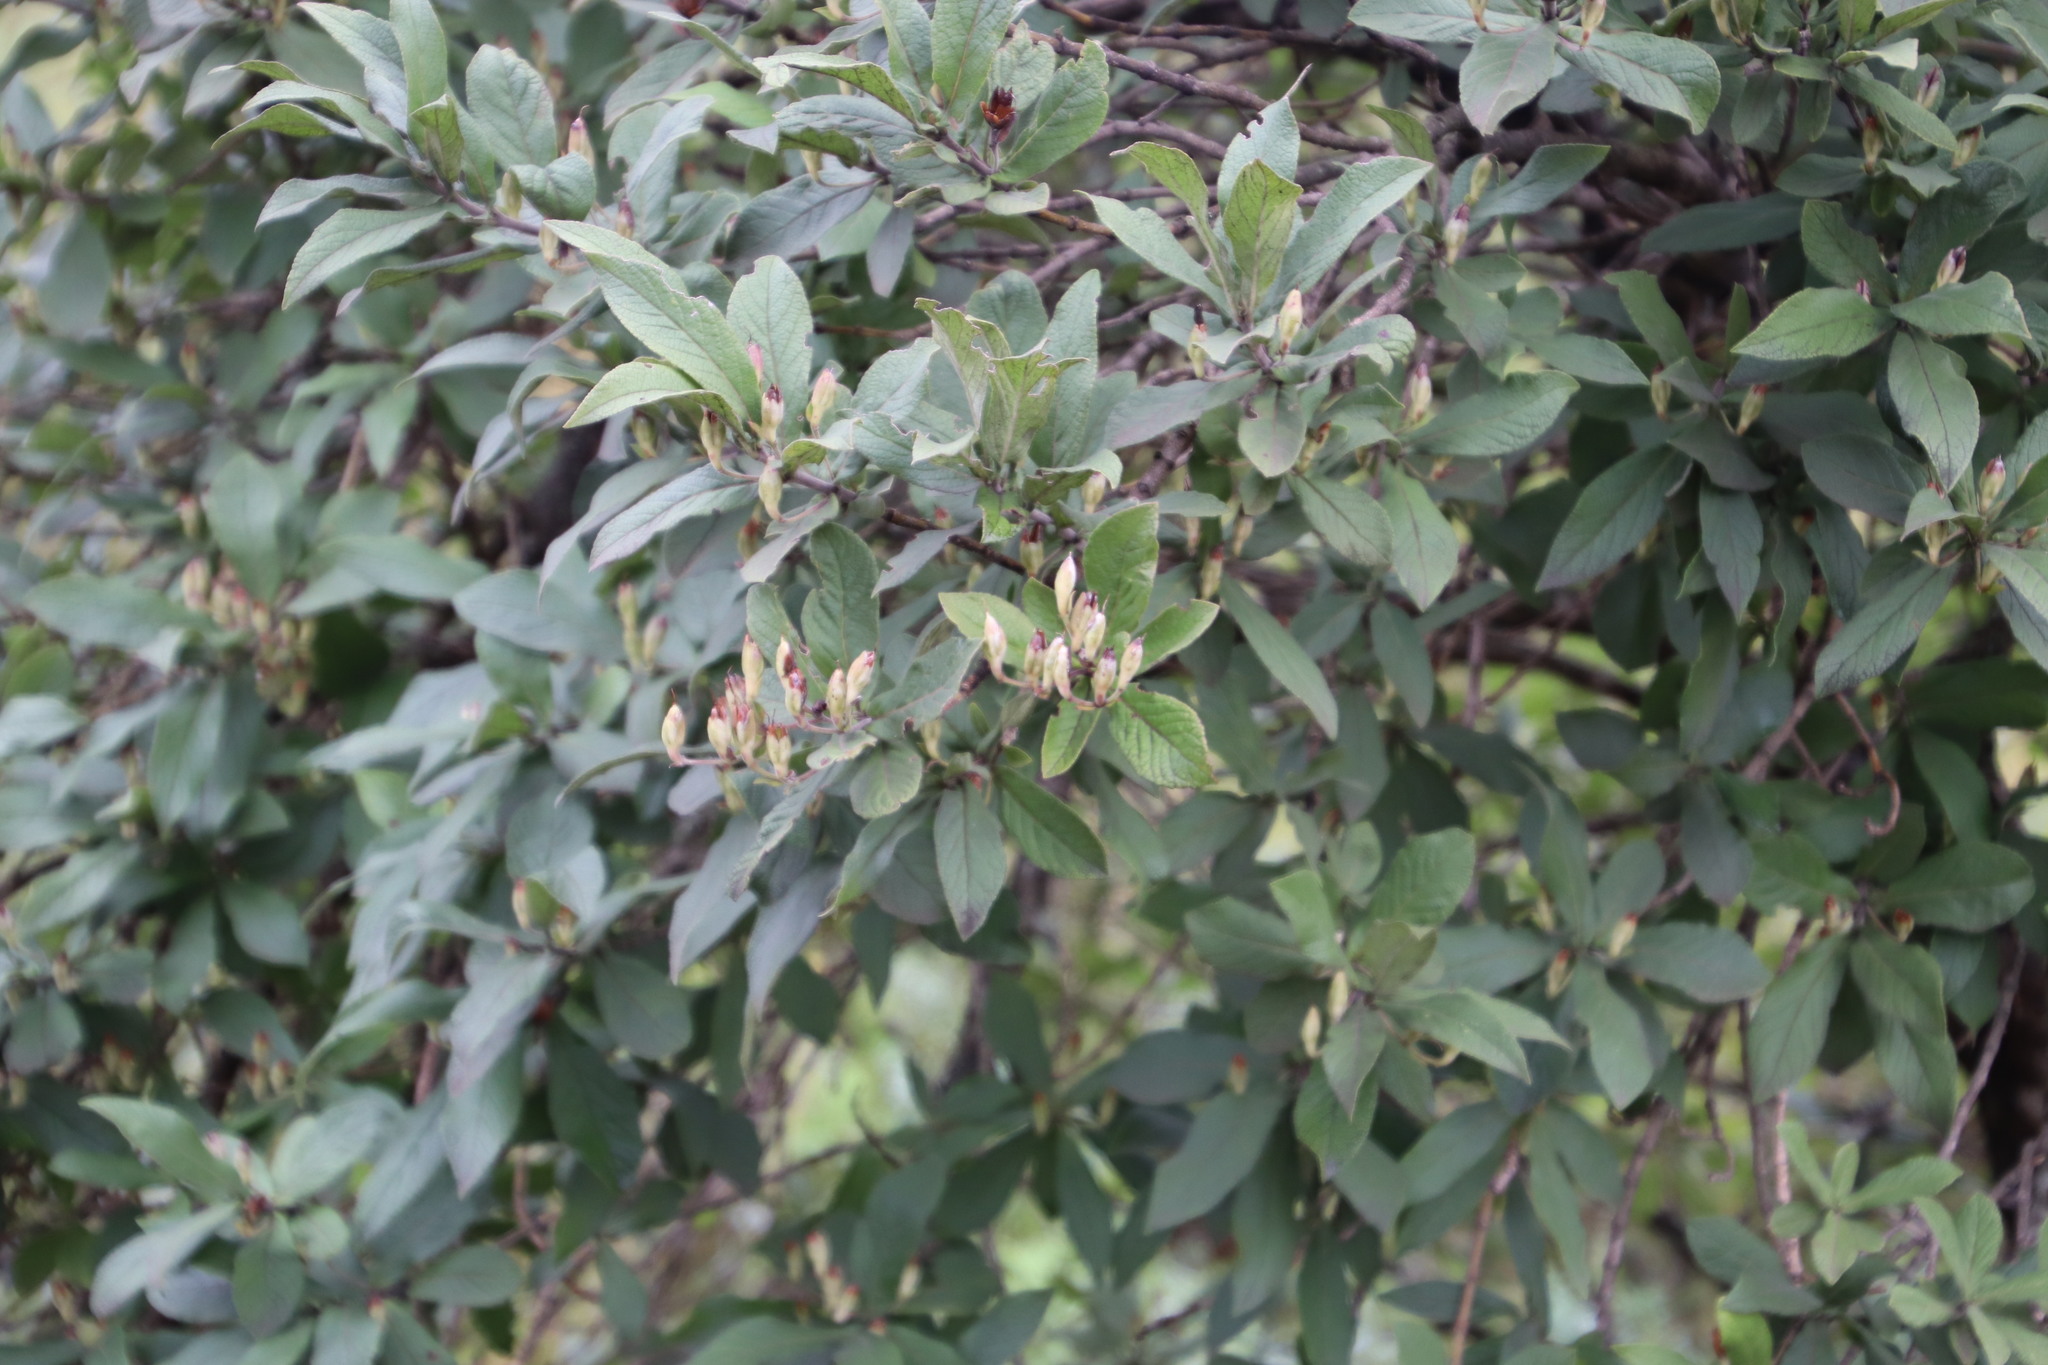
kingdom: Plantae
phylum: Tracheophyta
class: Magnoliopsida
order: Lamiales
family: Stilbaceae
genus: Bowkeria
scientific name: Bowkeria verticillata
